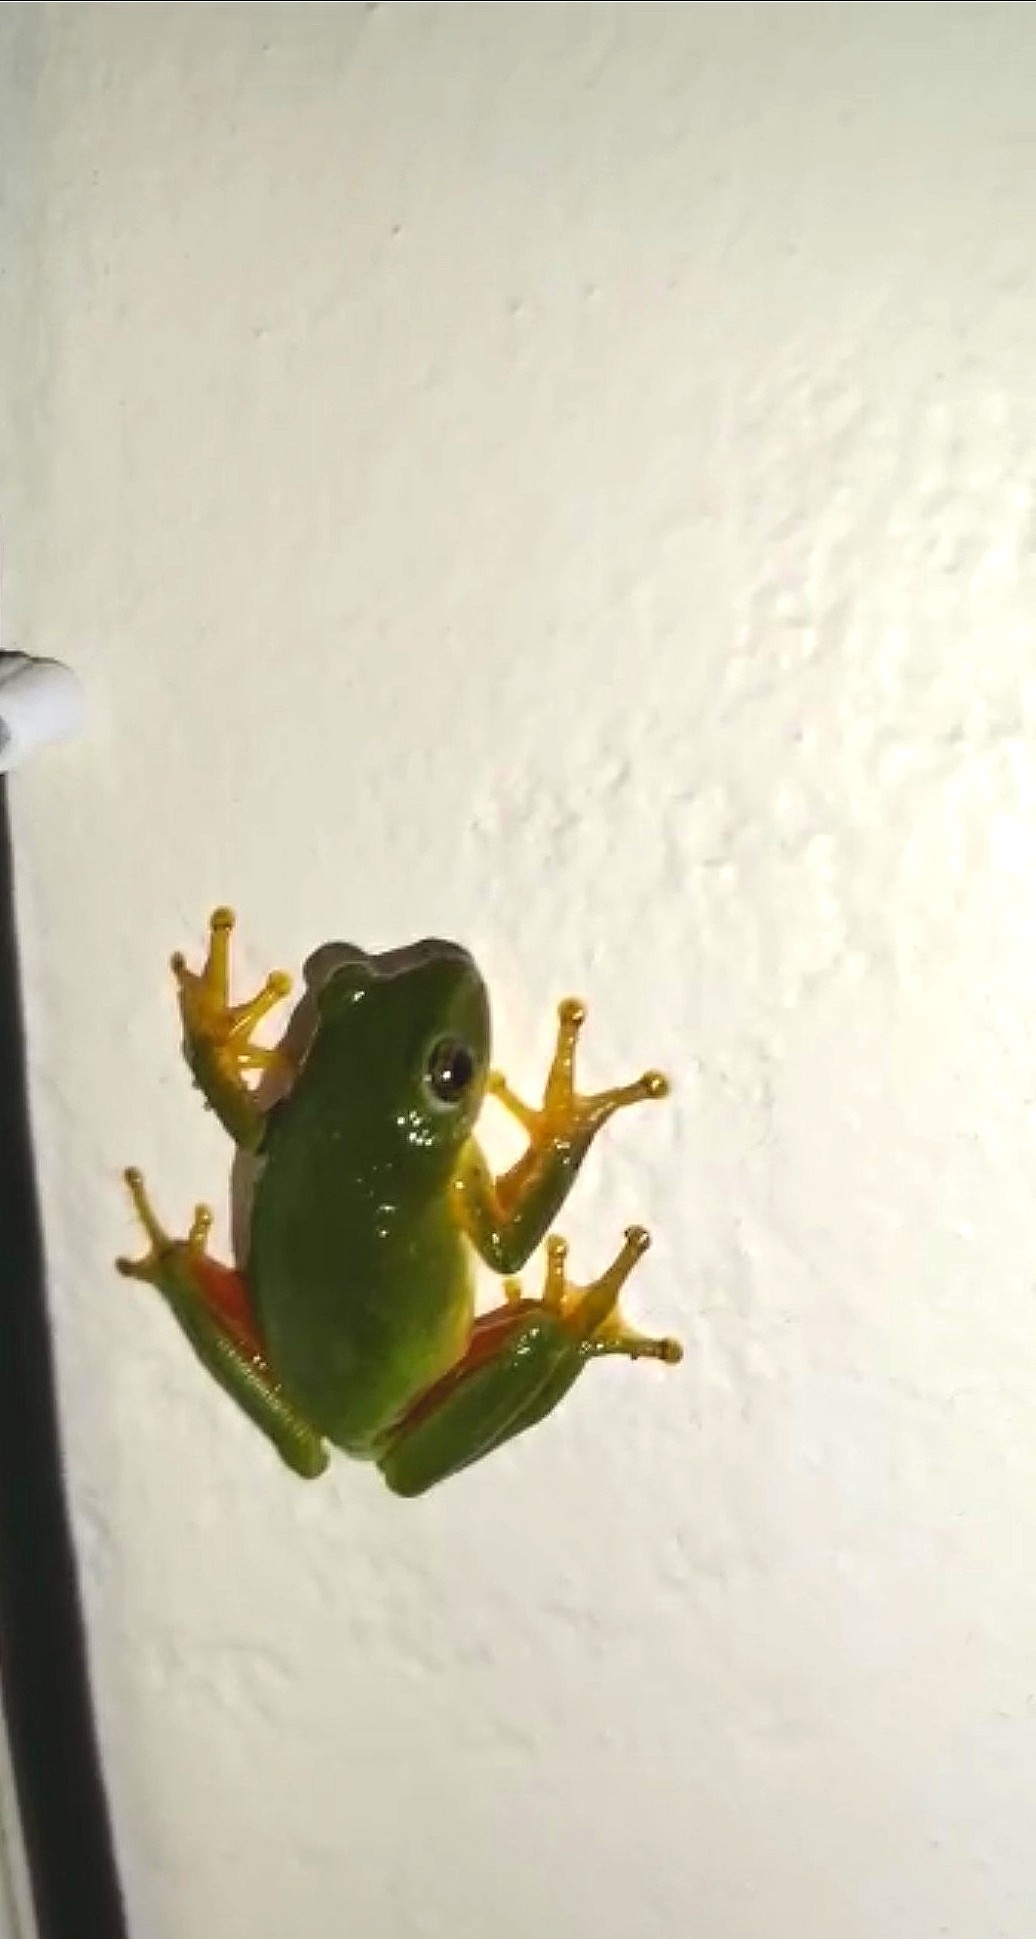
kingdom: Animalia
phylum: Chordata
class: Amphibia
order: Anura
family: Hyperoliidae
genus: Hyperolius
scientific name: Hyperolius tuberilinguis
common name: Tinker reed frog
